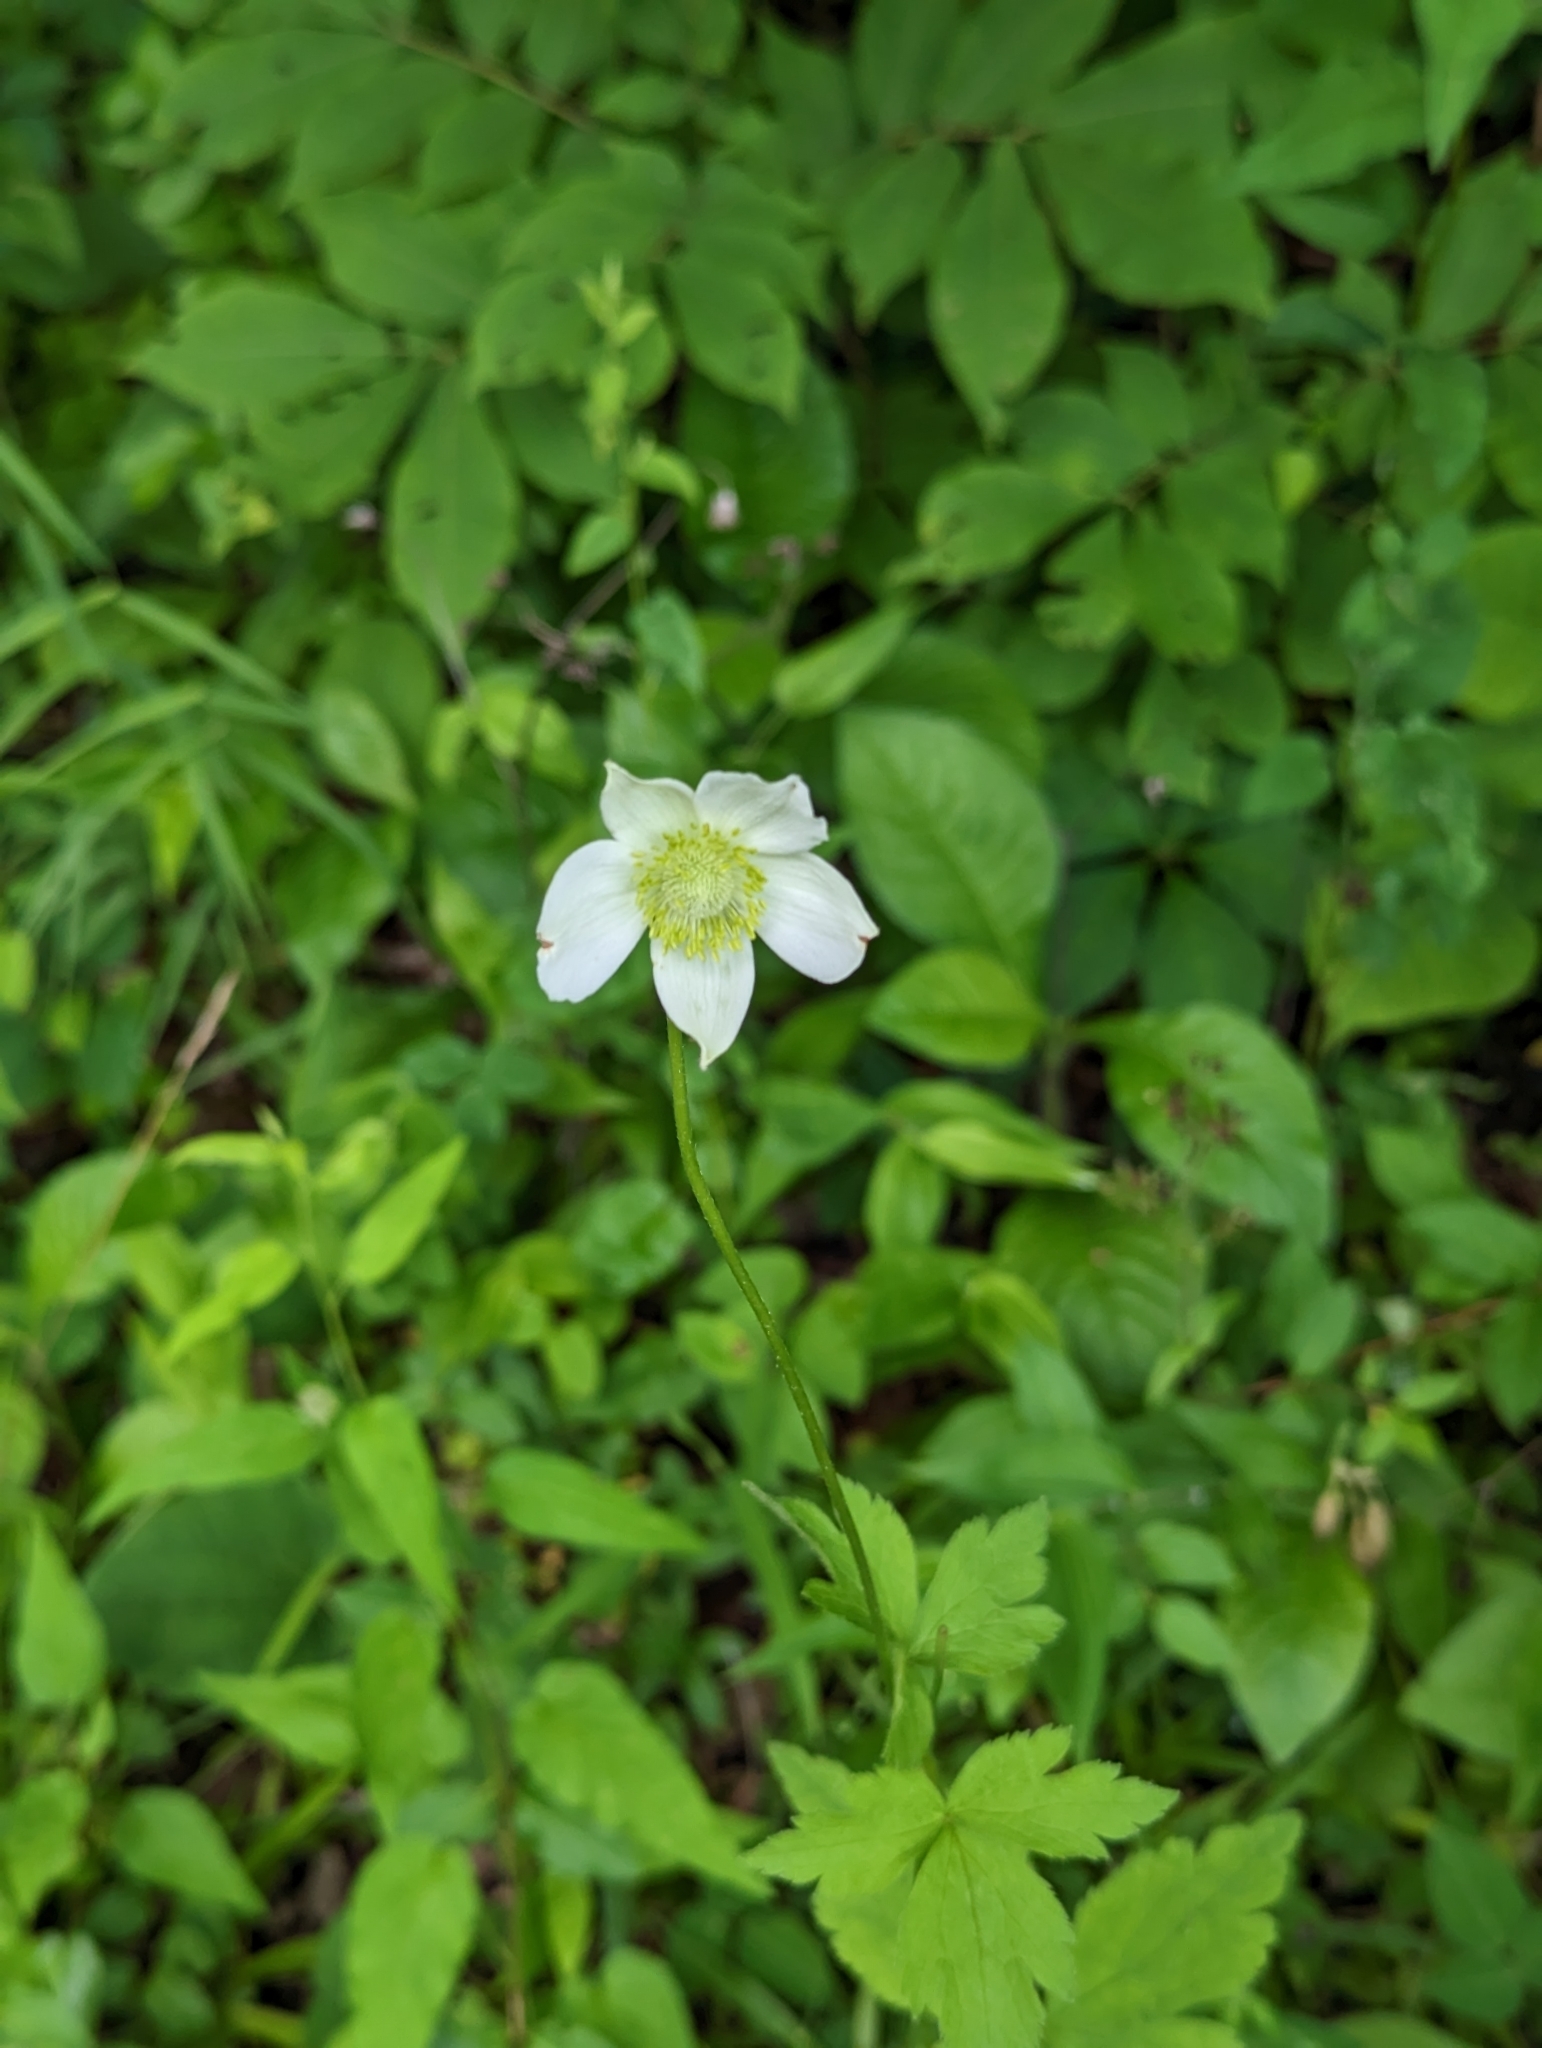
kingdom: Plantae
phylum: Tracheophyta
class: Magnoliopsida
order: Ranunculales
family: Ranunculaceae
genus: Anemone
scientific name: Anemone virginiana
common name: Tall anemone
